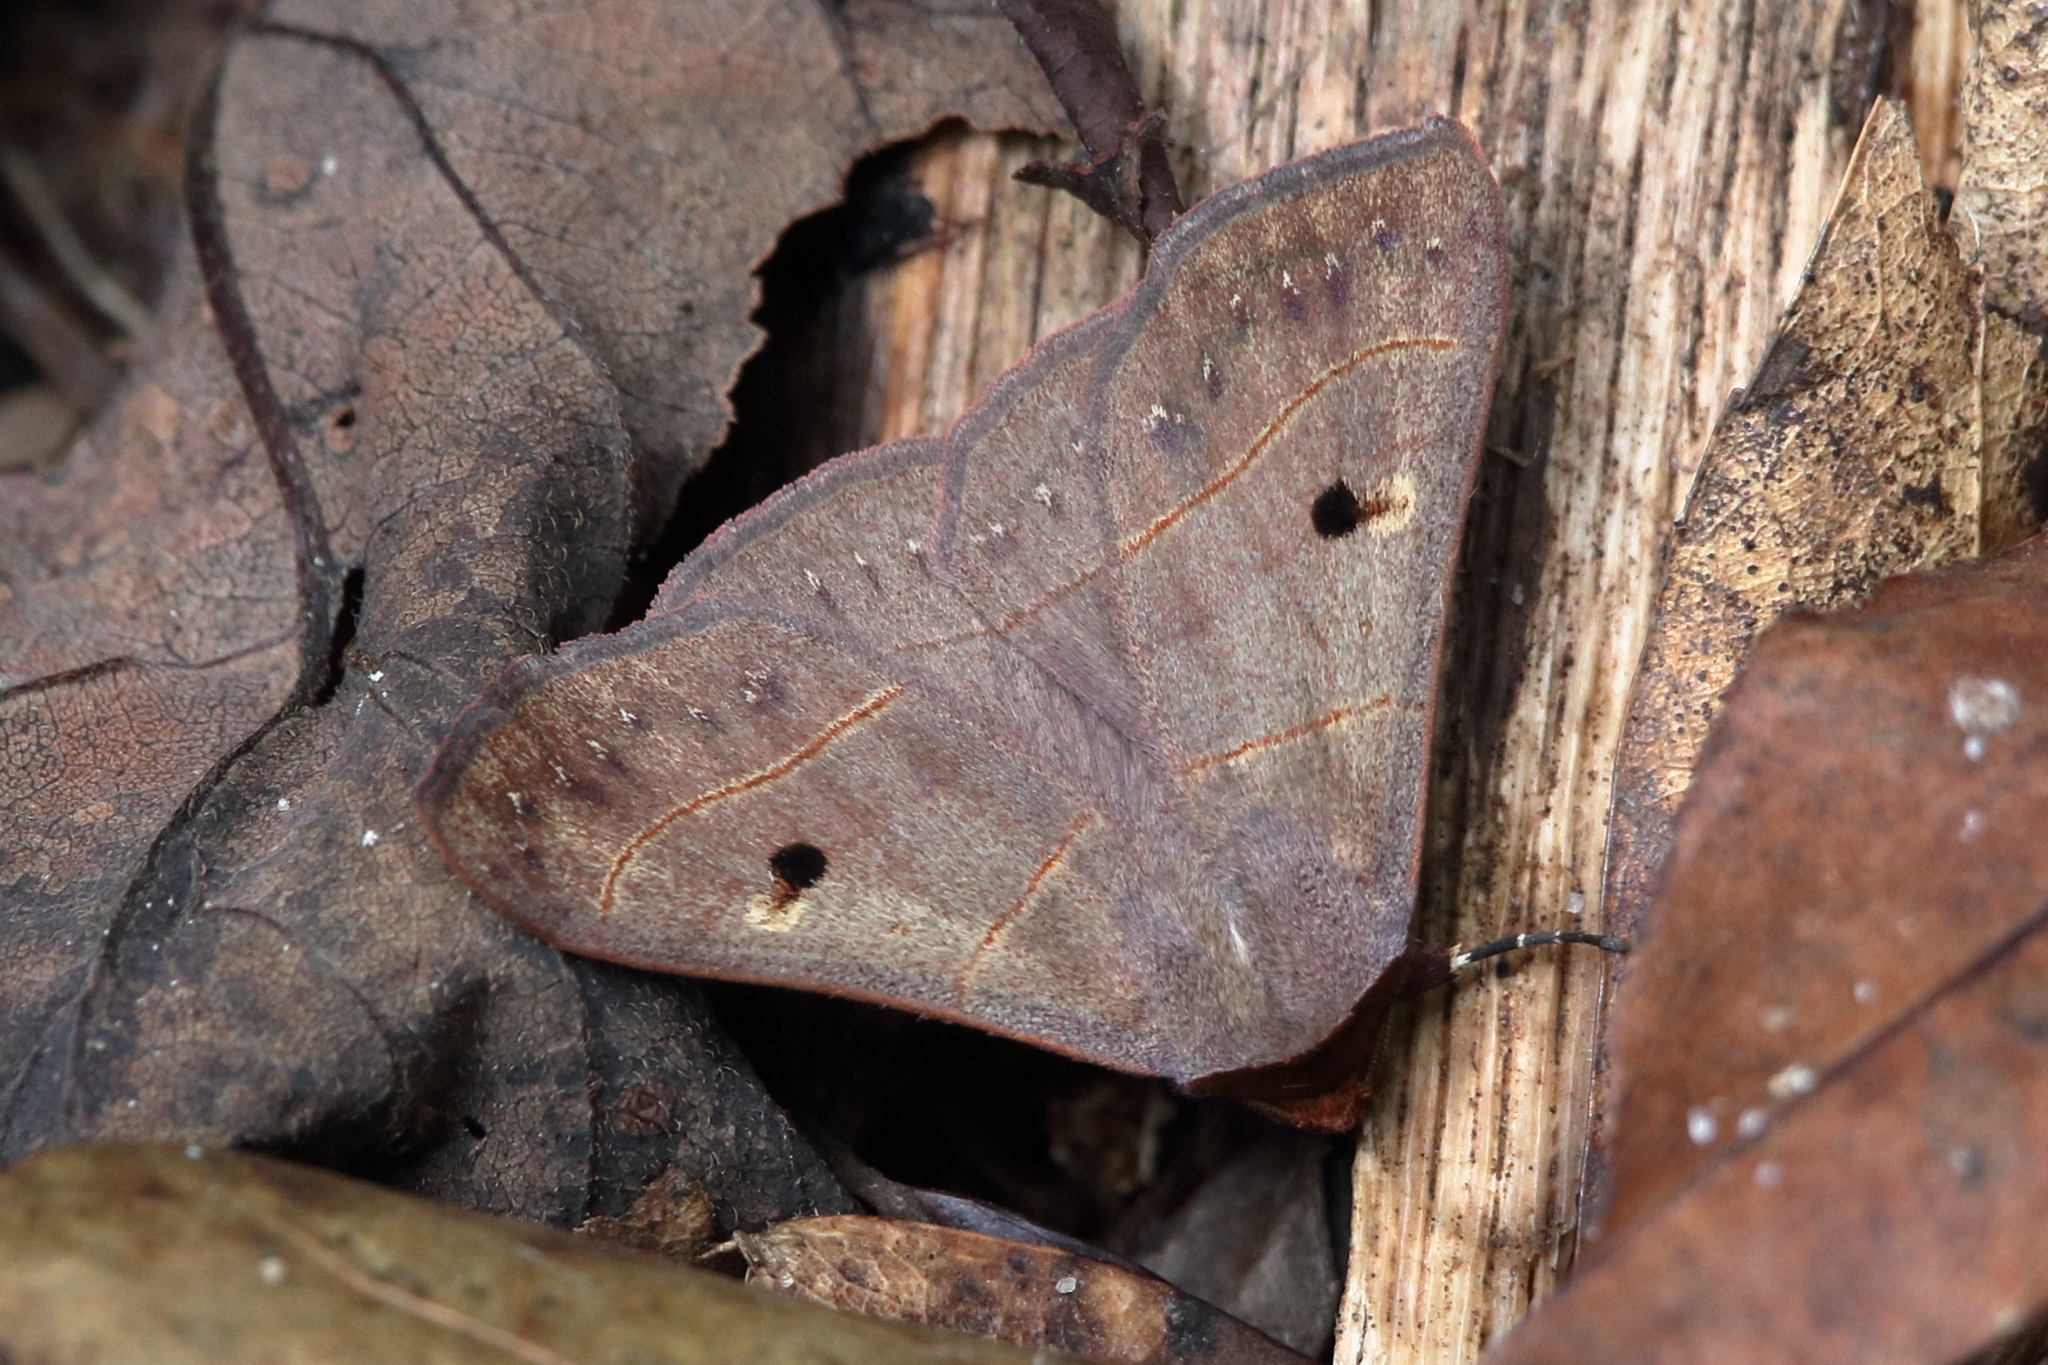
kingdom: Animalia
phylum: Arthropoda
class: Insecta
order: Lepidoptera
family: Erebidae
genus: Panopoda
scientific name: Panopoda rufimargo
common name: Red-lined panopoda moth
